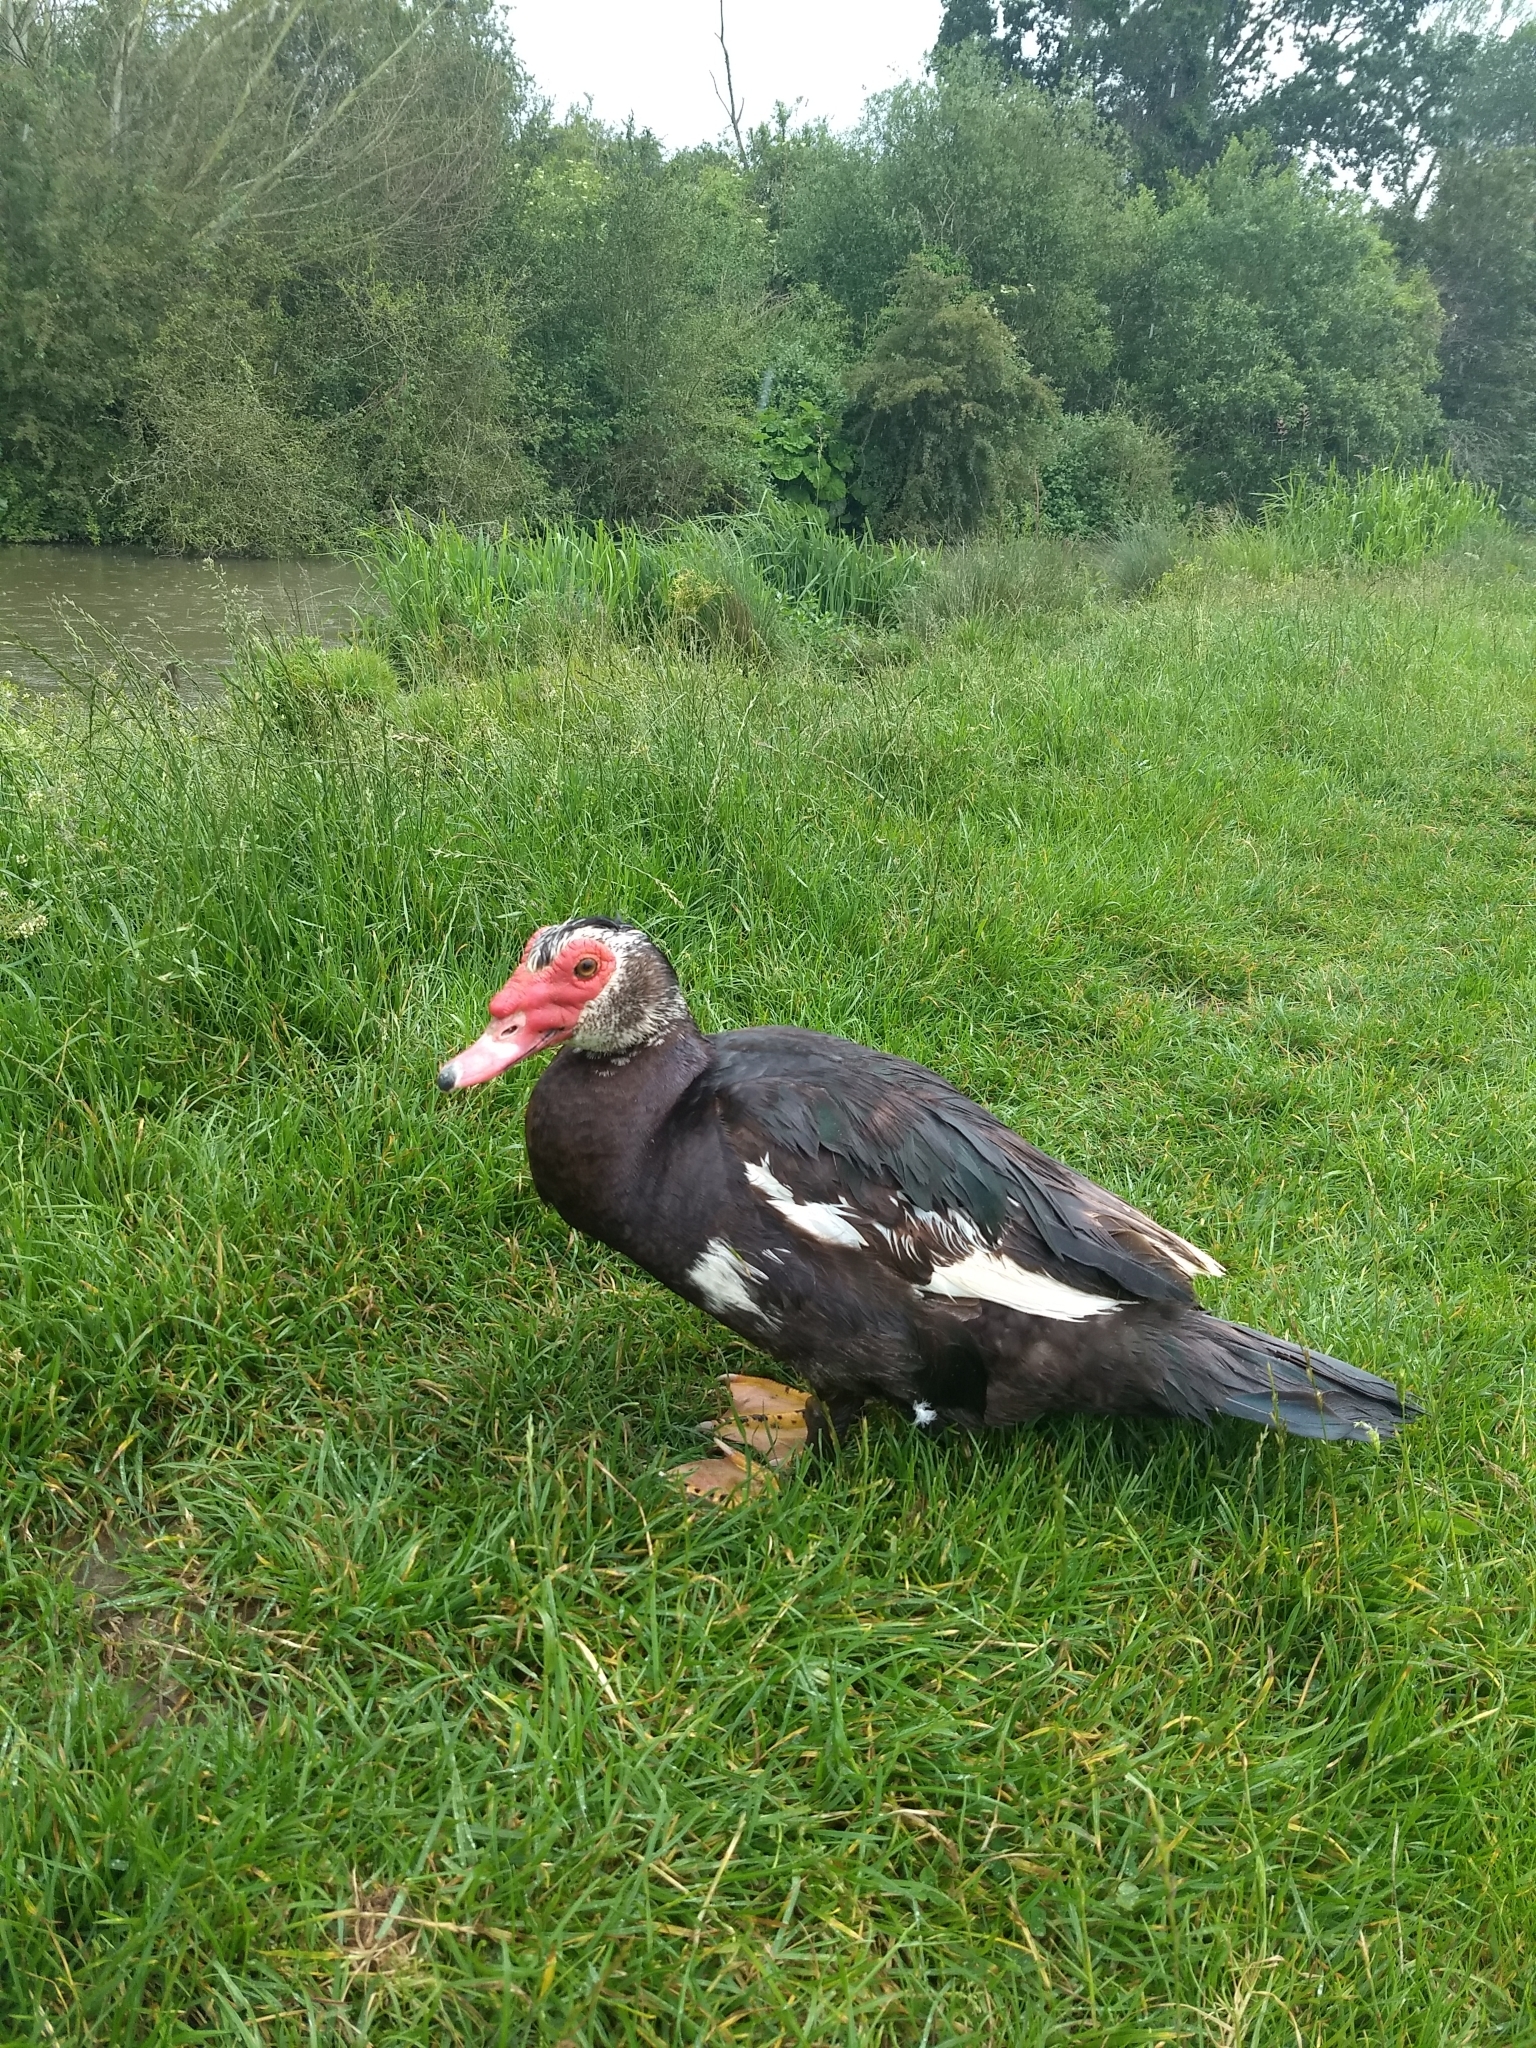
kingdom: Animalia
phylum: Chordata
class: Aves
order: Anseriformes
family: Anatidae
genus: Cairina
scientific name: Cairina moschata
